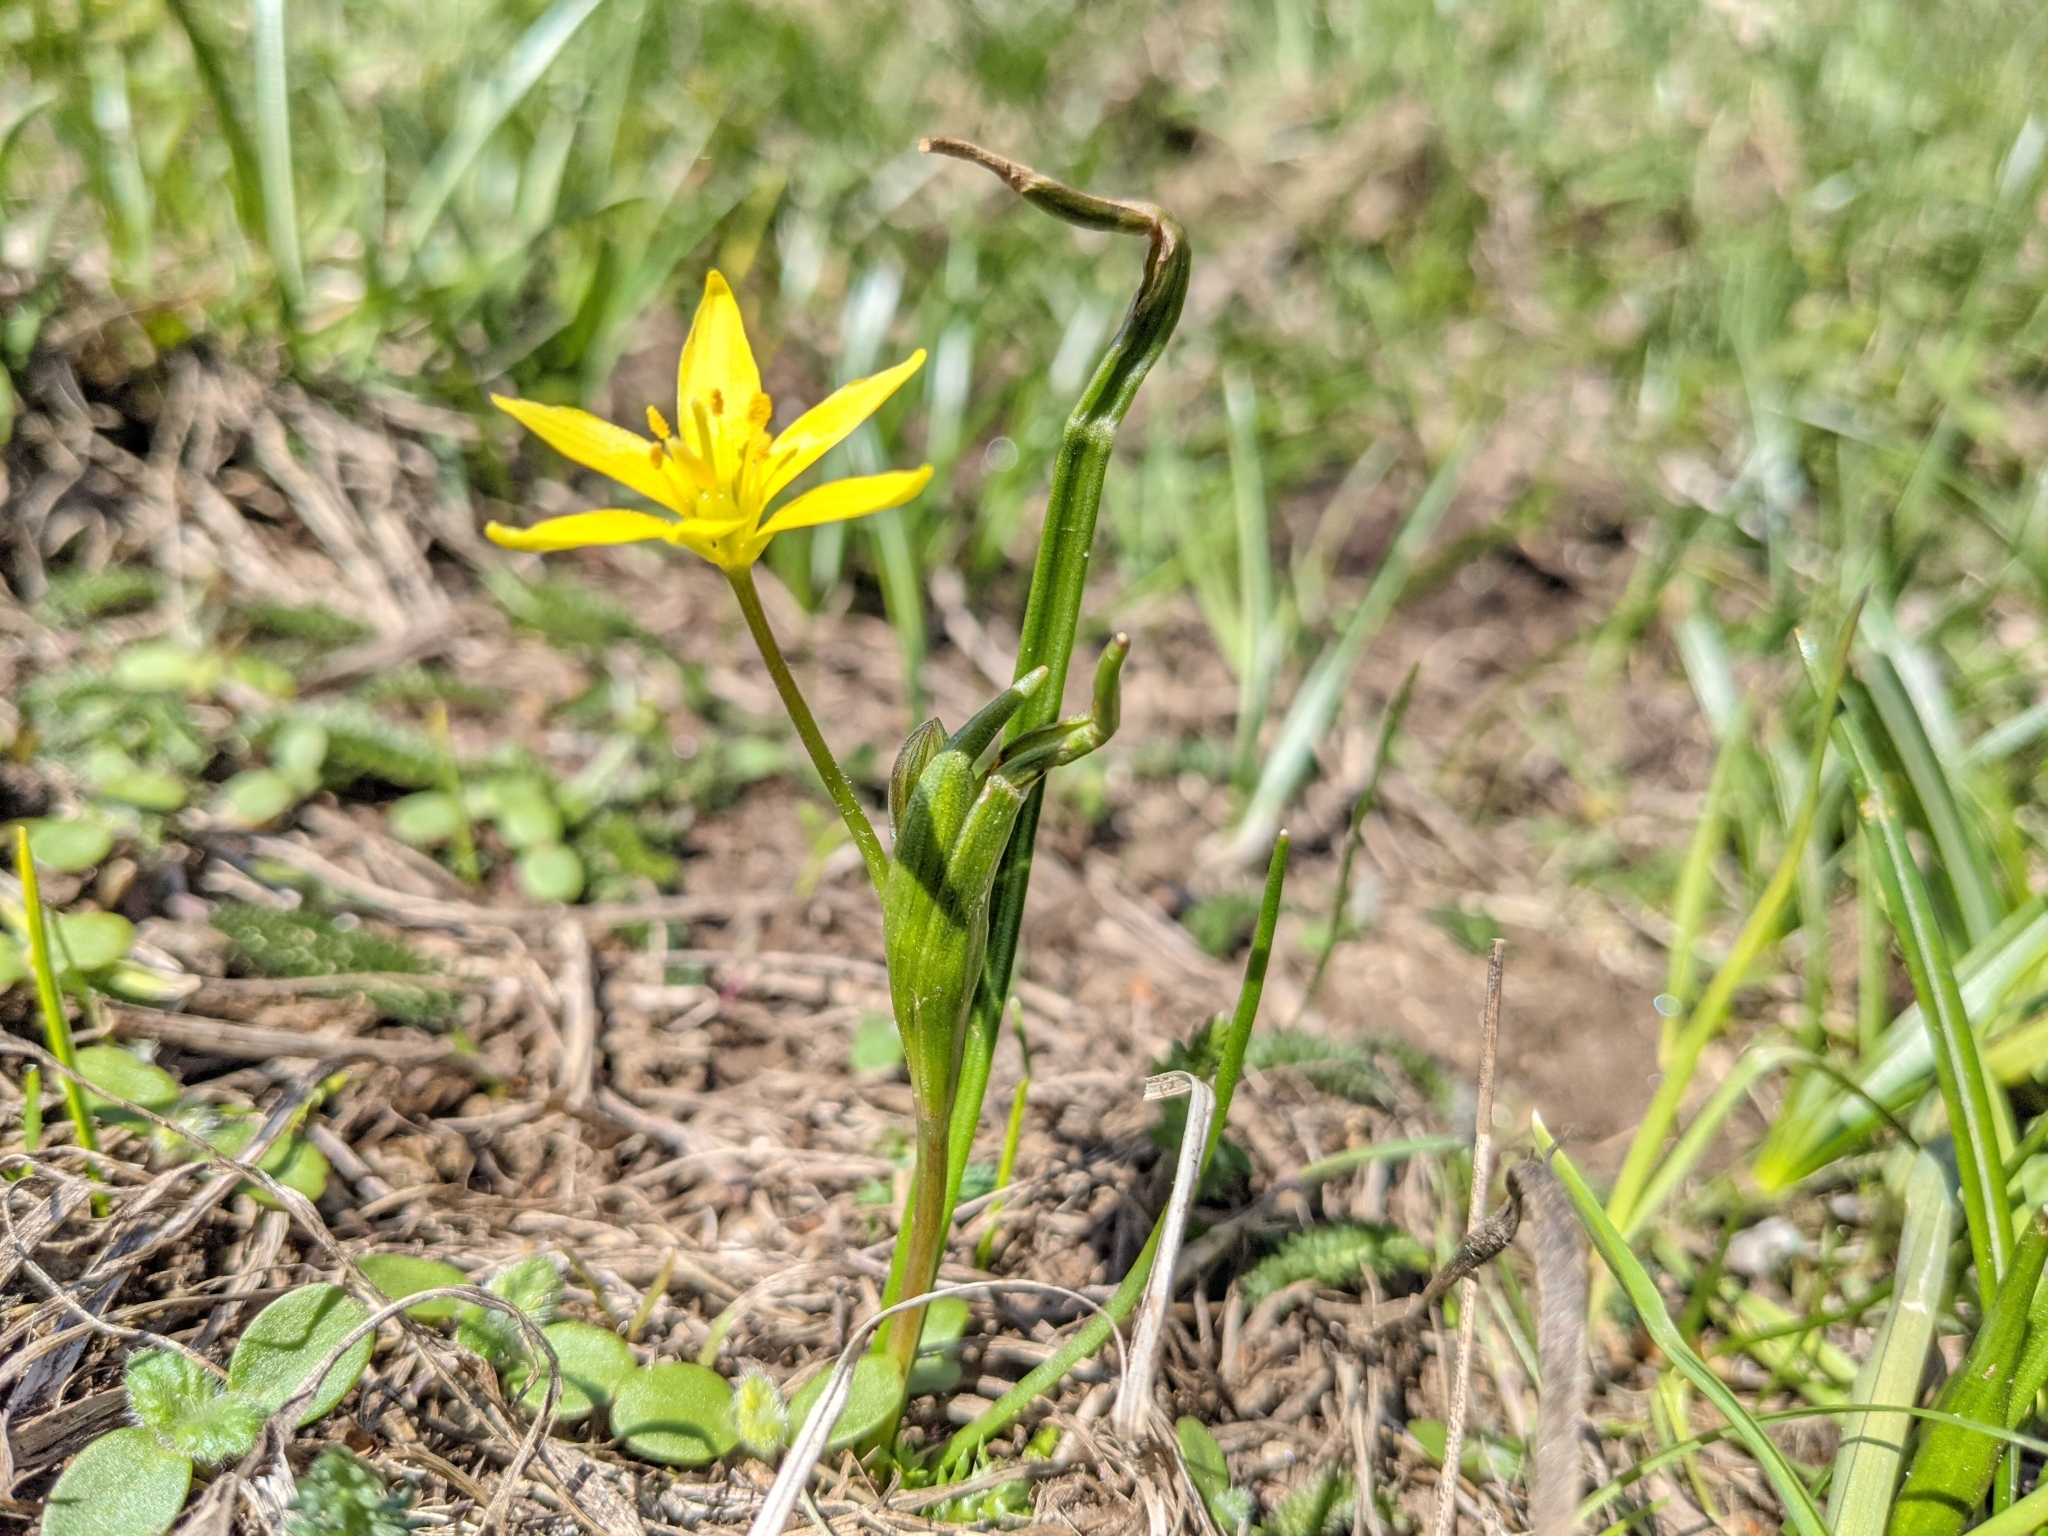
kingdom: Plantae
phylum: Tracheophyta
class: Liliopsida
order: Liliales
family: Liliaceae
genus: Gagea
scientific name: Gagea lutea
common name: Yellow star-of-bethlehem
